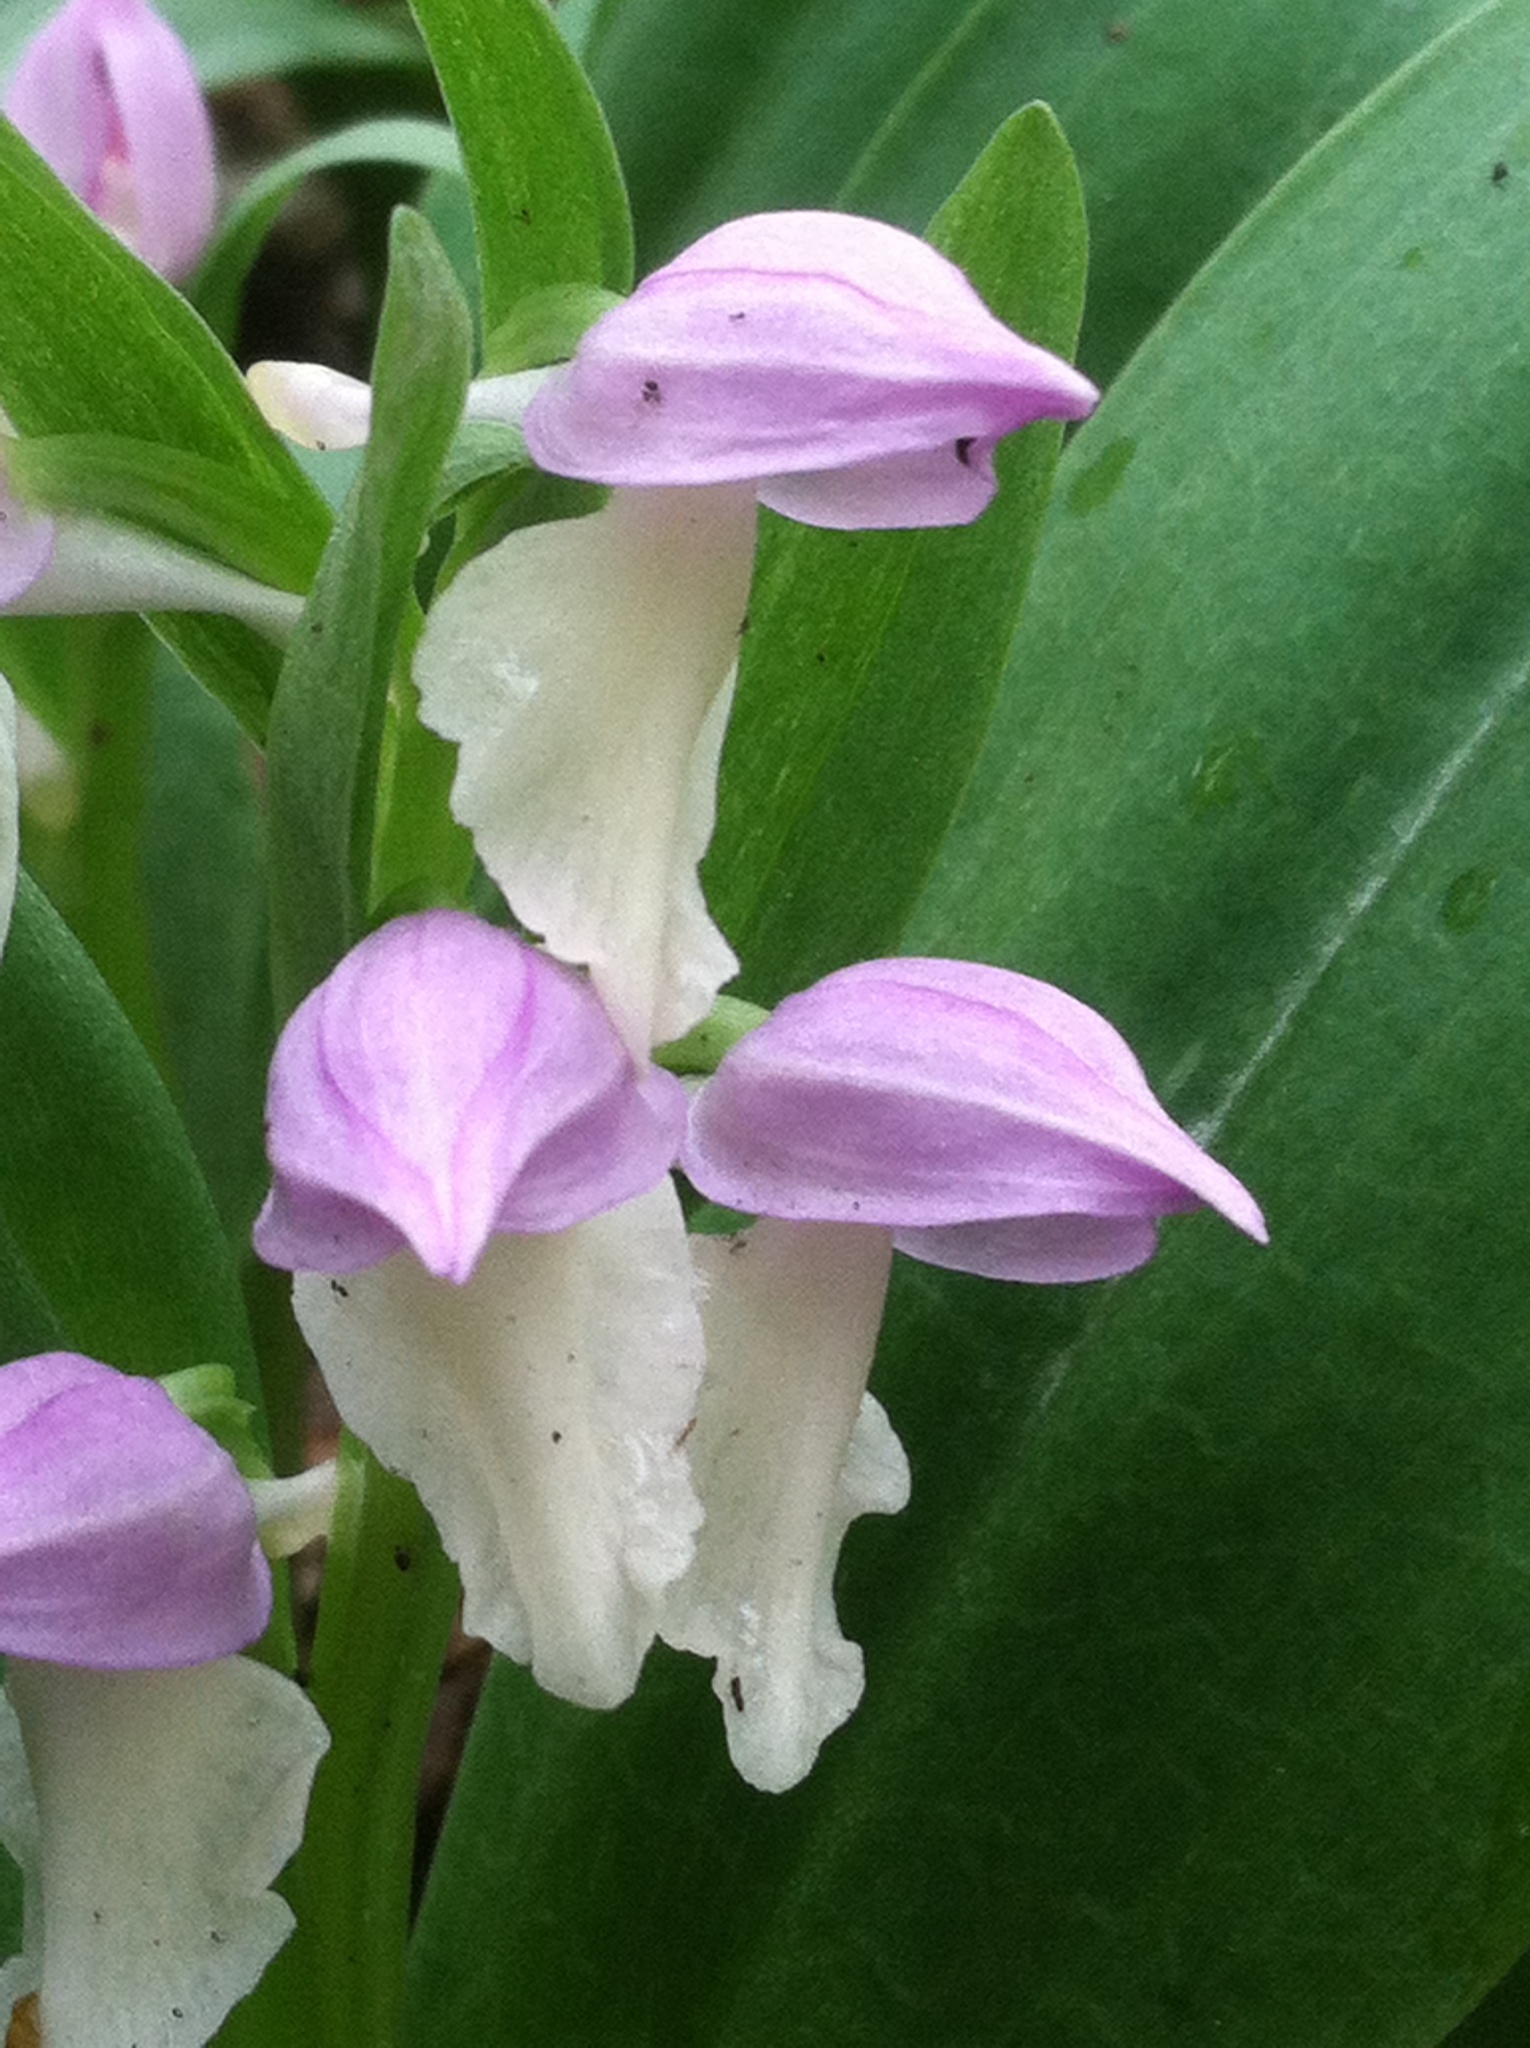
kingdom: Plantae
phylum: Tracheophyta
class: Liliopsida
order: Asparagales
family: Orchidaceae
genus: Galearis
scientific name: Galearis spectabilis
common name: Purple-hooded orchis
